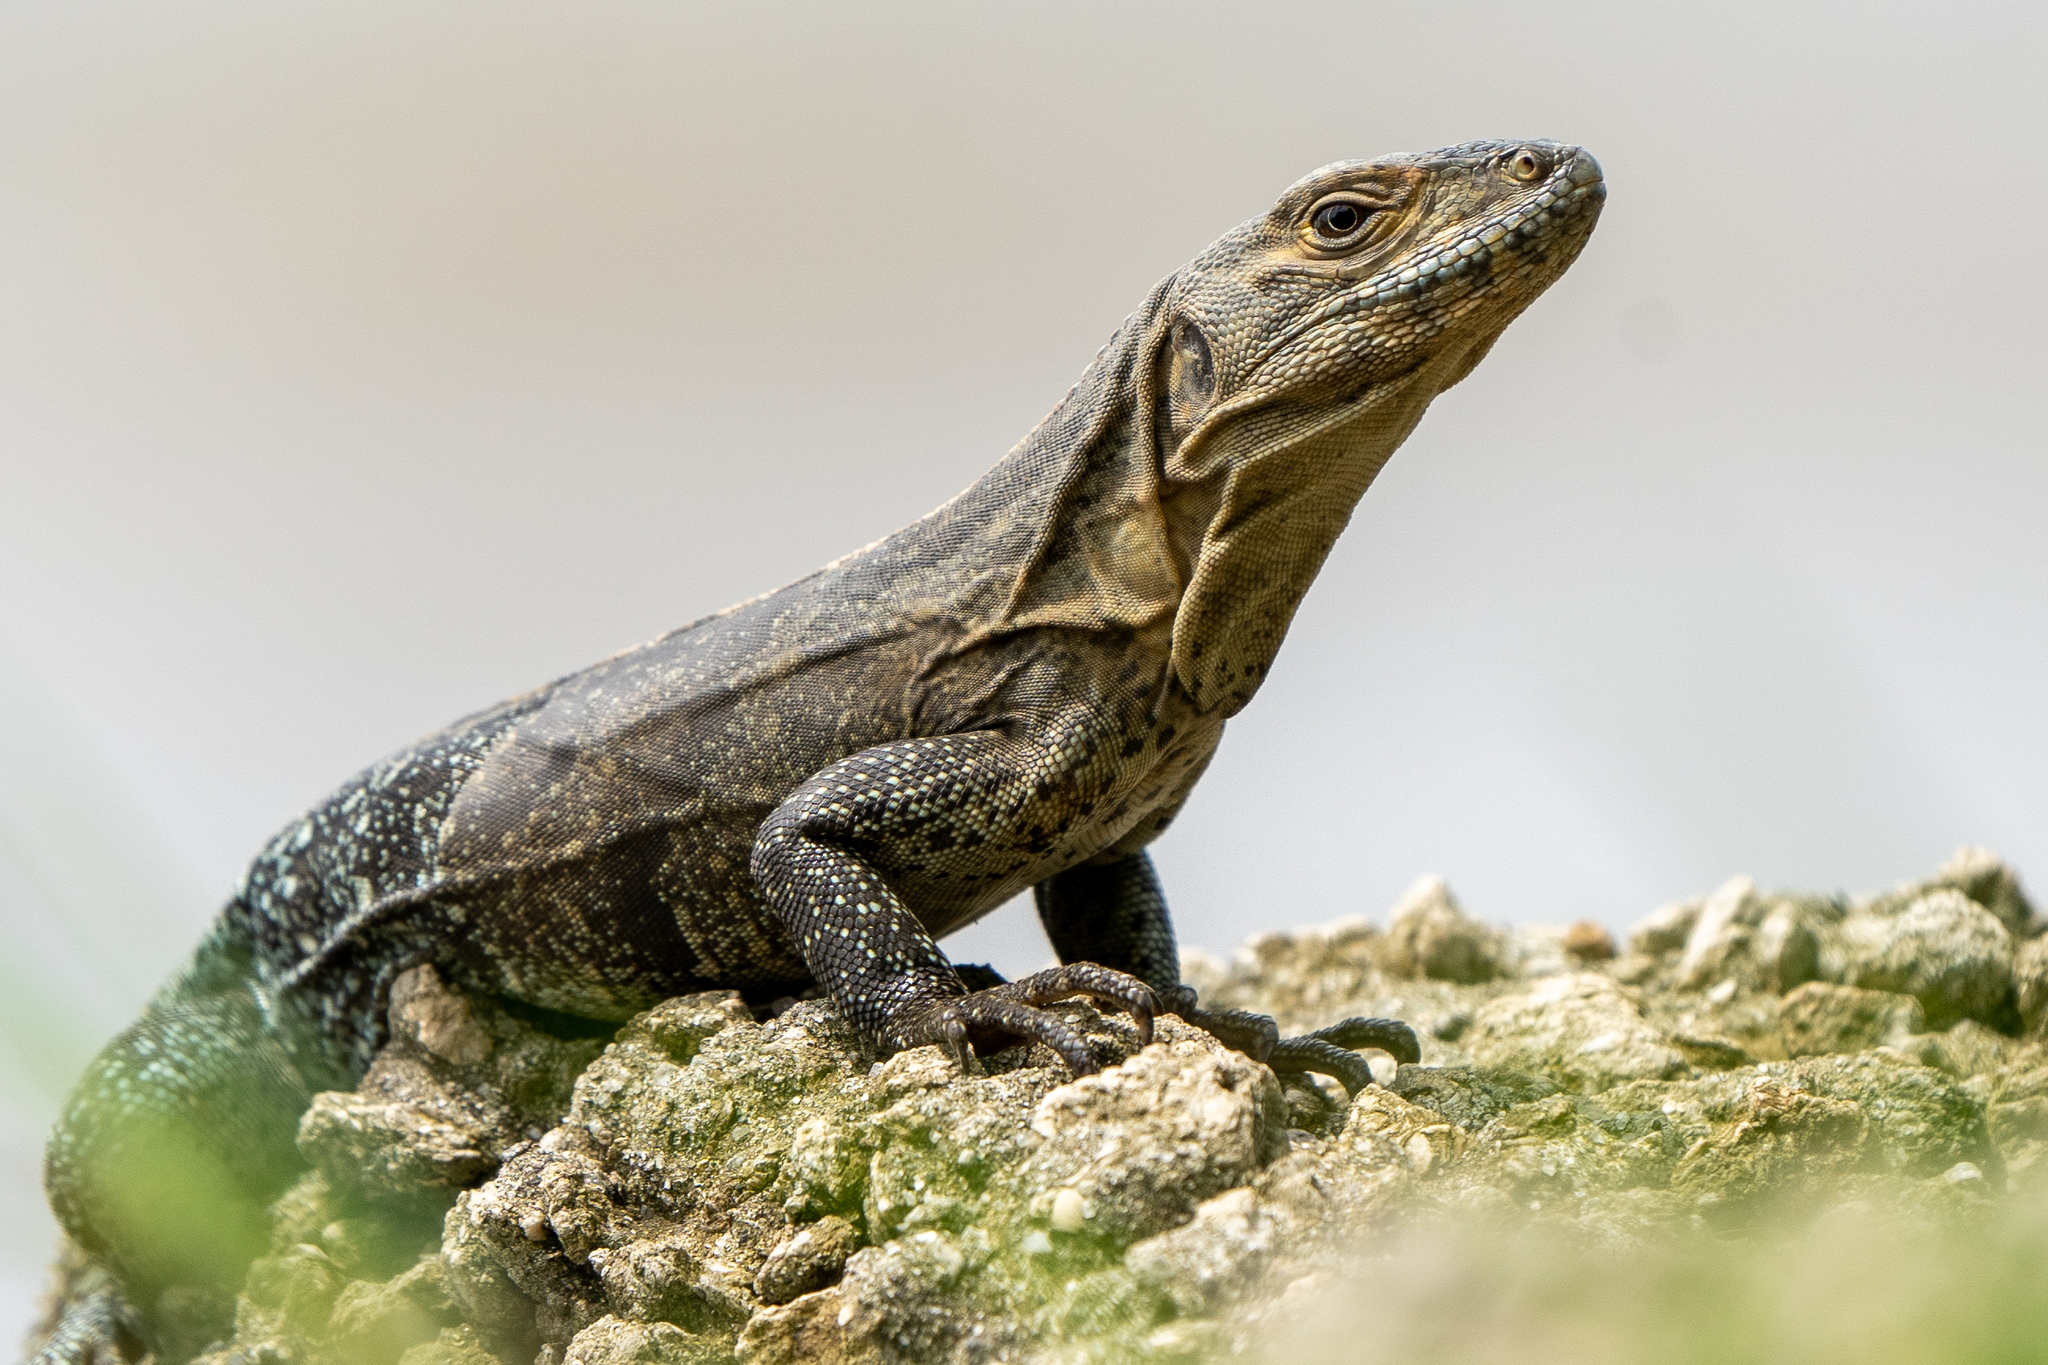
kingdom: Animalia
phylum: Chordata
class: Squamata
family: Iguanidae
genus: Ctenosaura
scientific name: Ctenosaura similis
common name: Black spiny-tailed iguana
